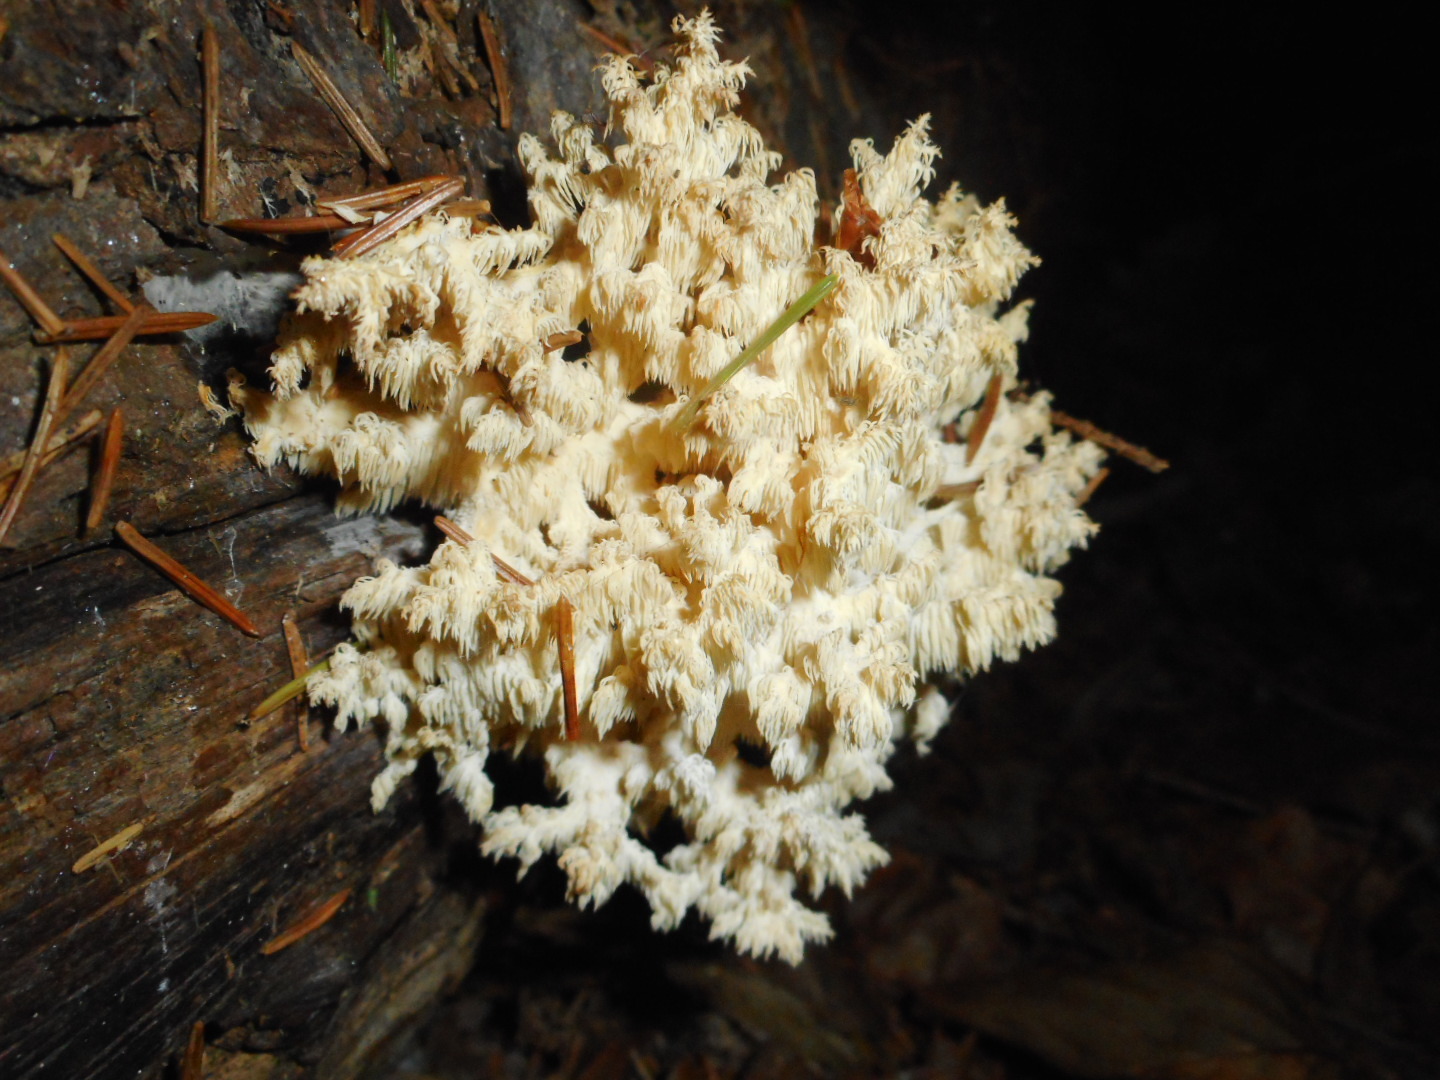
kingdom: Fungi
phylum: Basidiomycota
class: Agaricomycetes
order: Russulales
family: Hericiaceae
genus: Hericium
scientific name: Hericium coralloides
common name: Coral tooth
